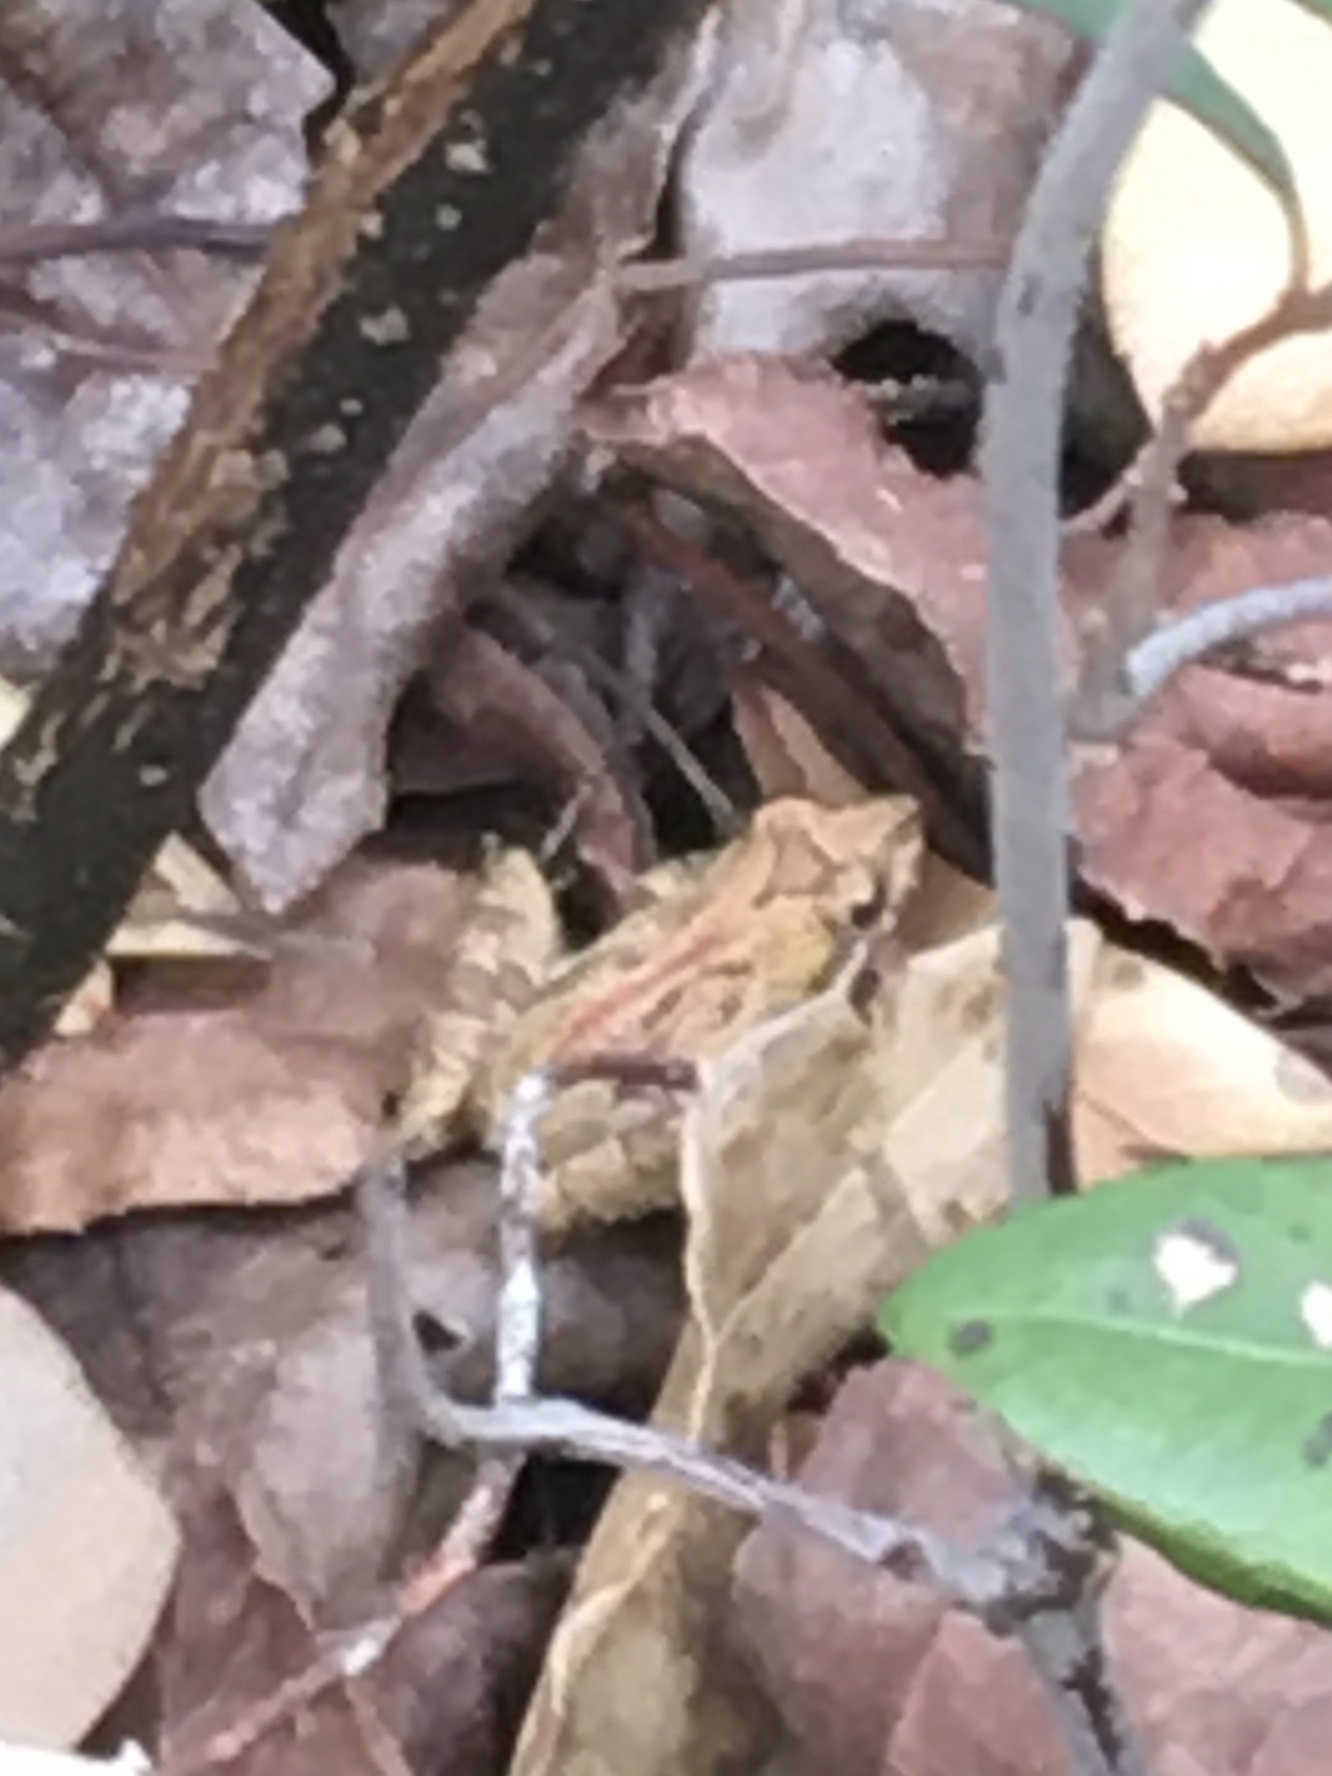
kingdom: Animalia
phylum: Chordata
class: Amphibia
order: Anura
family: Hylidae
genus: Acris
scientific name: Acris gryllus
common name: Southern cricket frog
